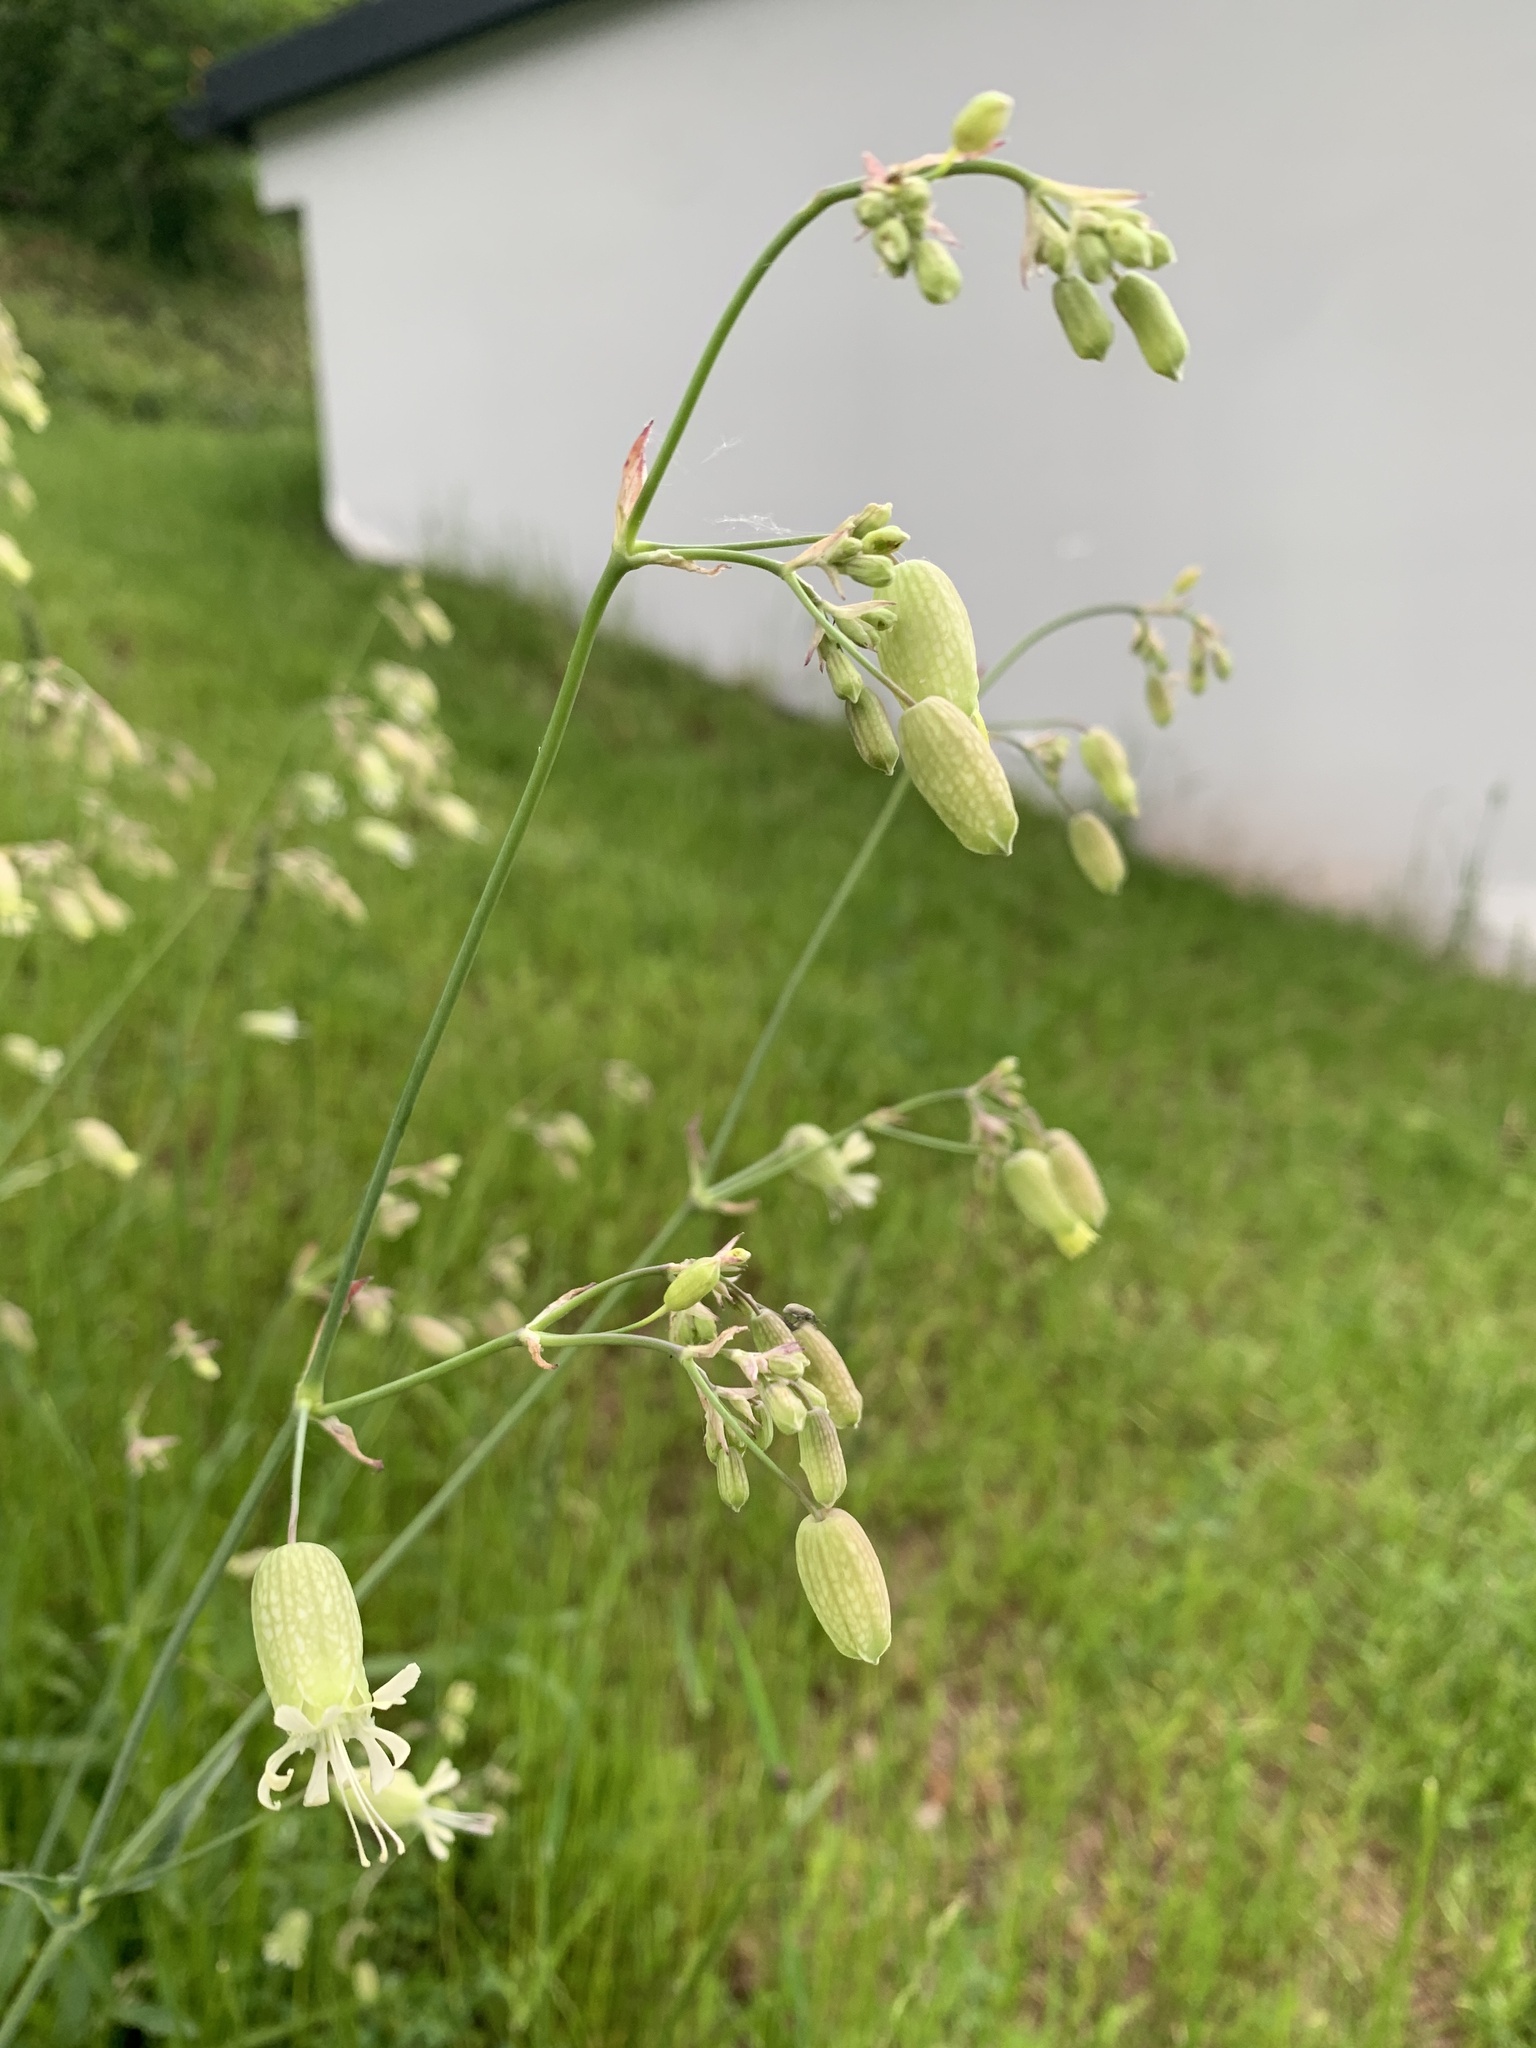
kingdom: Plantae
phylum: Tracheophyta
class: Magnoliopsida
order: Caryophyllales
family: Caryophyllaceae
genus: Silene
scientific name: Silene vulgaris
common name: Bladder campion
